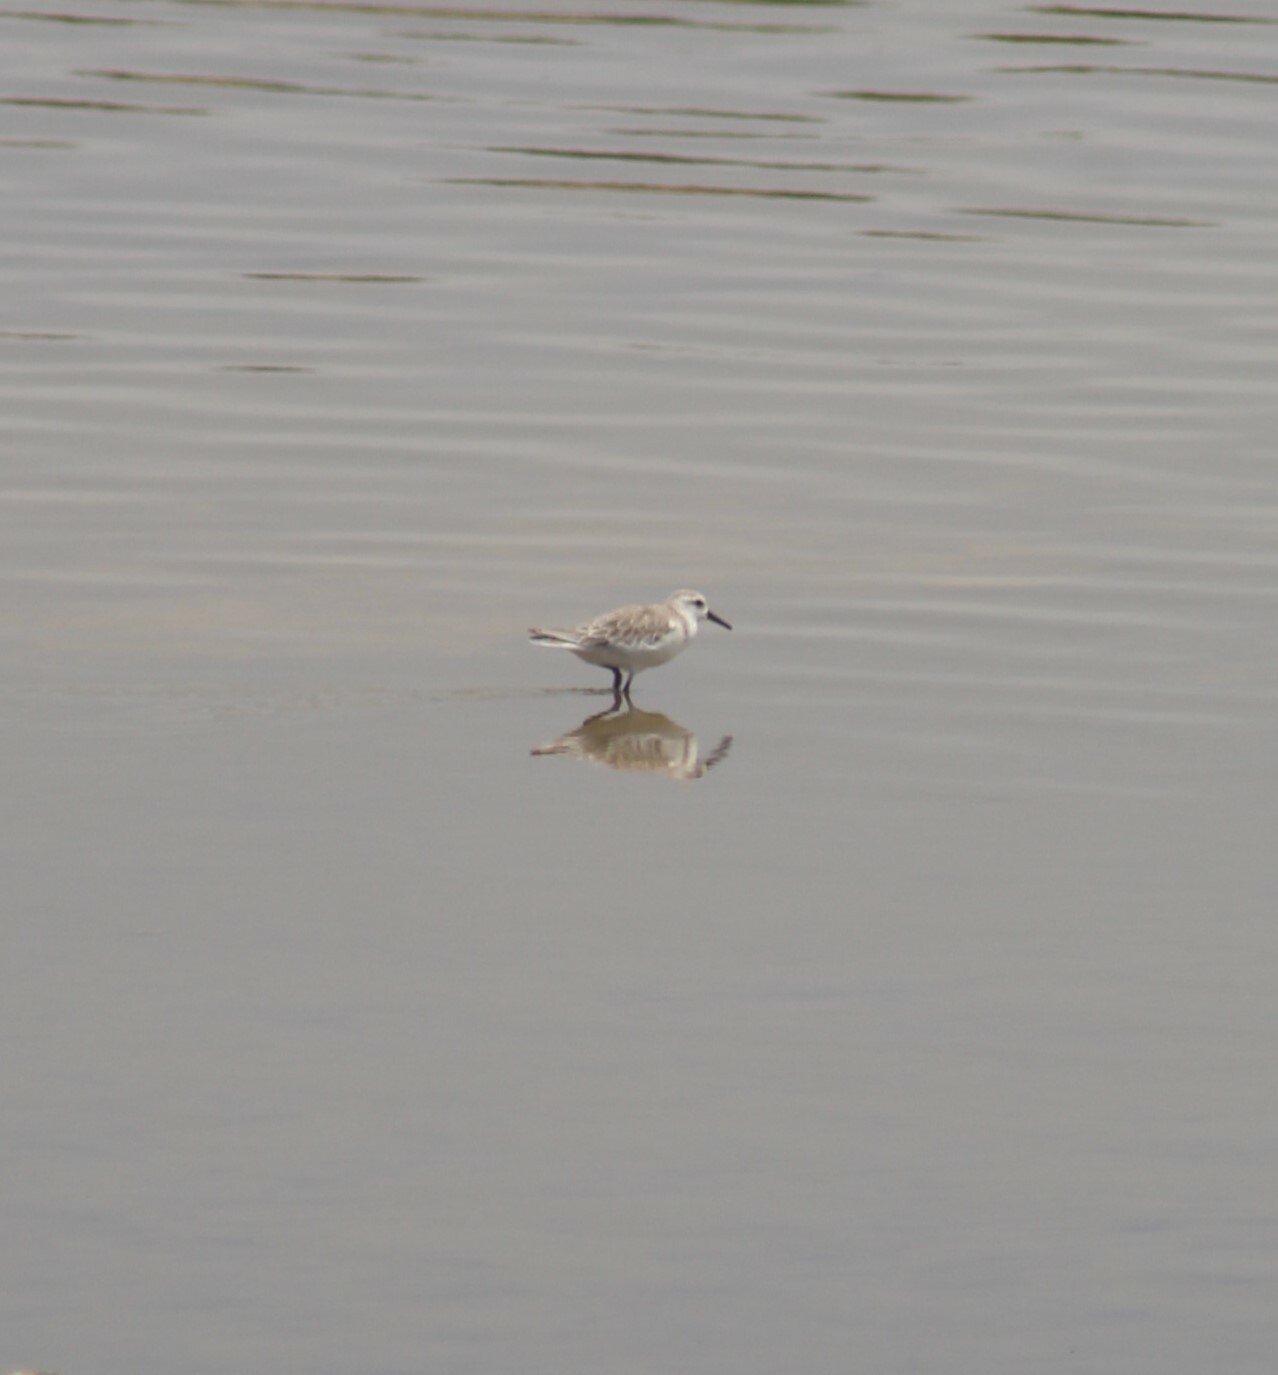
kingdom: Animalia
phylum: Chordata
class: Aves
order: Charadriiformes
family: Scolopacidae
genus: Calidris
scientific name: Calidris alba
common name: Sanderling
